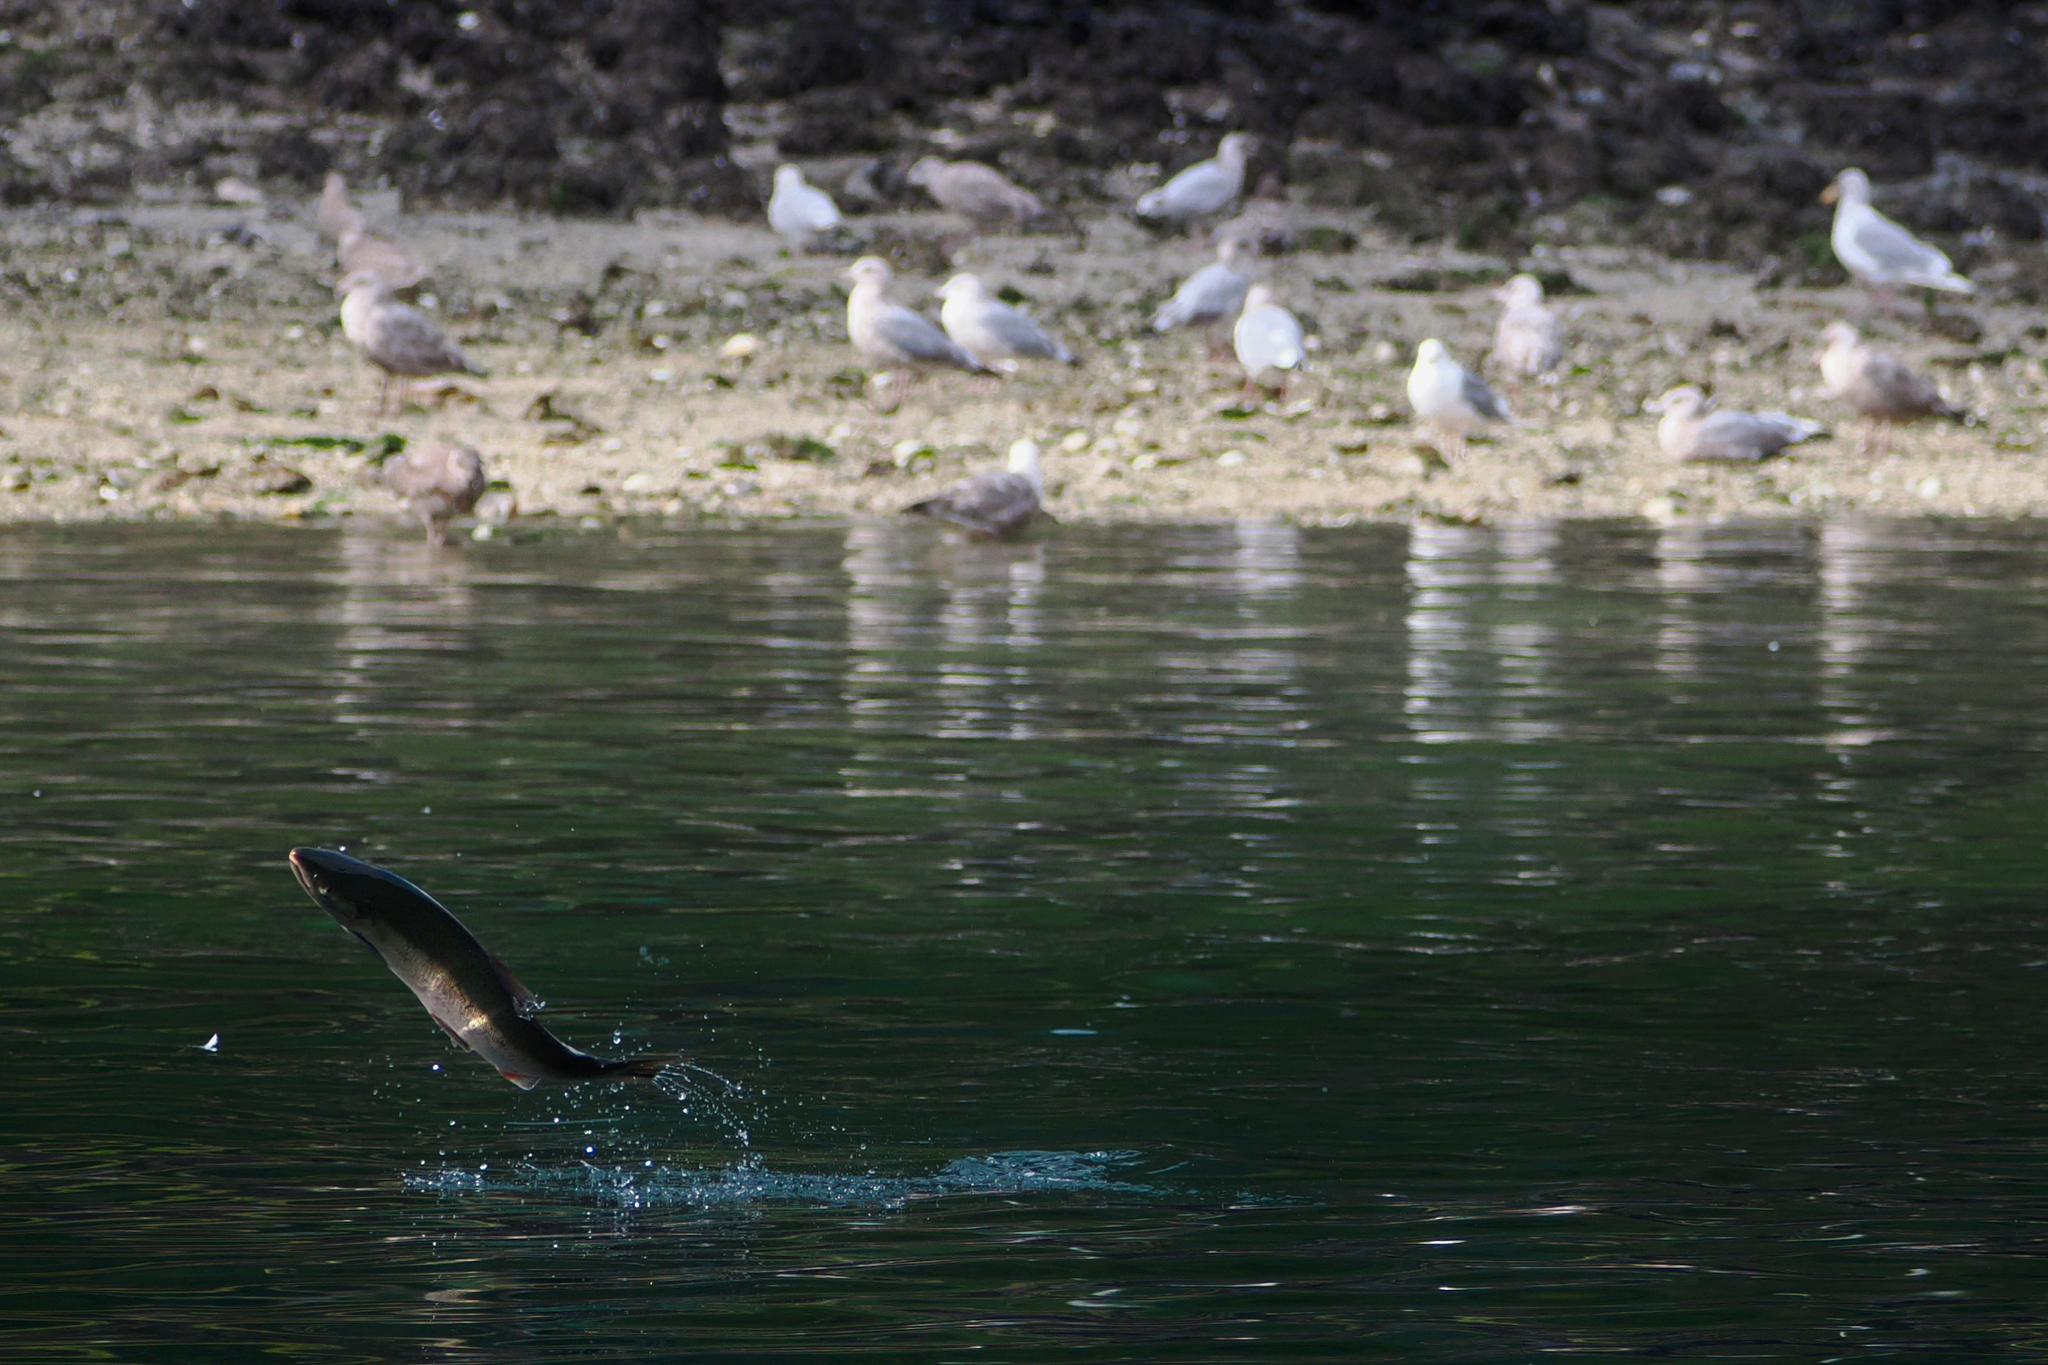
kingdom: Animalia
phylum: Chordata
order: Salmoniformes
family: Salmonidae
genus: Oncorhynchus
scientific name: Oncorhynchus kisutch
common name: Coho salmon
